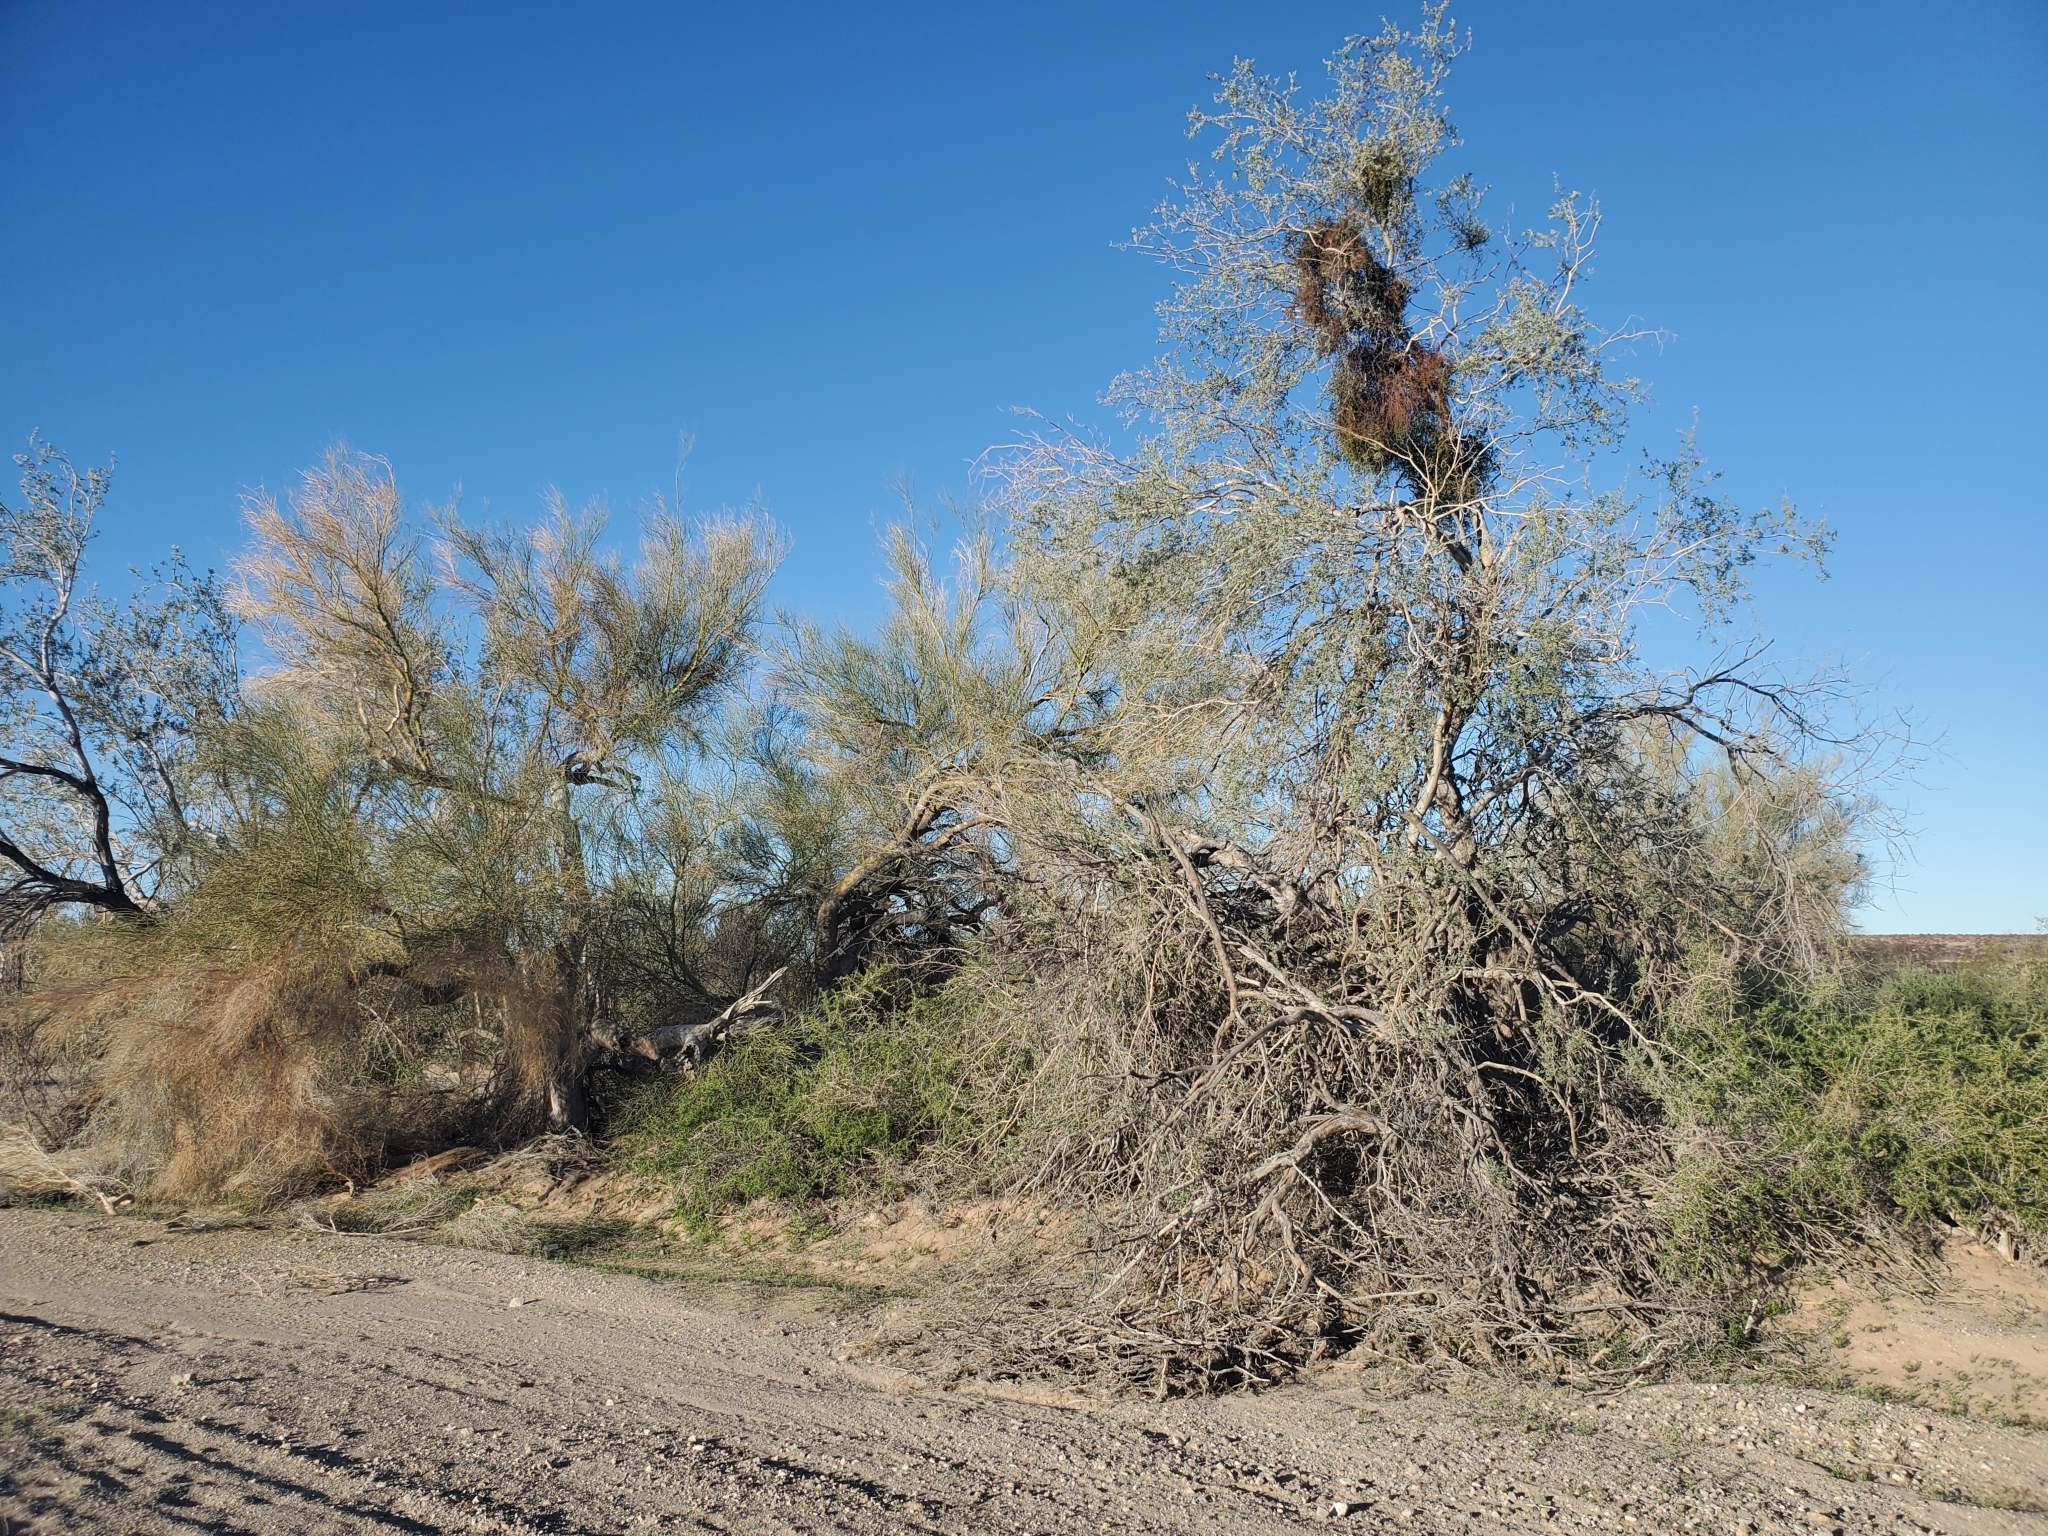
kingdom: Plantae
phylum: Tracheophyta
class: Magnoliopsida
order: Fabales
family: Fabaceae
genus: Olneya
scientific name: Olneya tesota
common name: Desert ironwood
